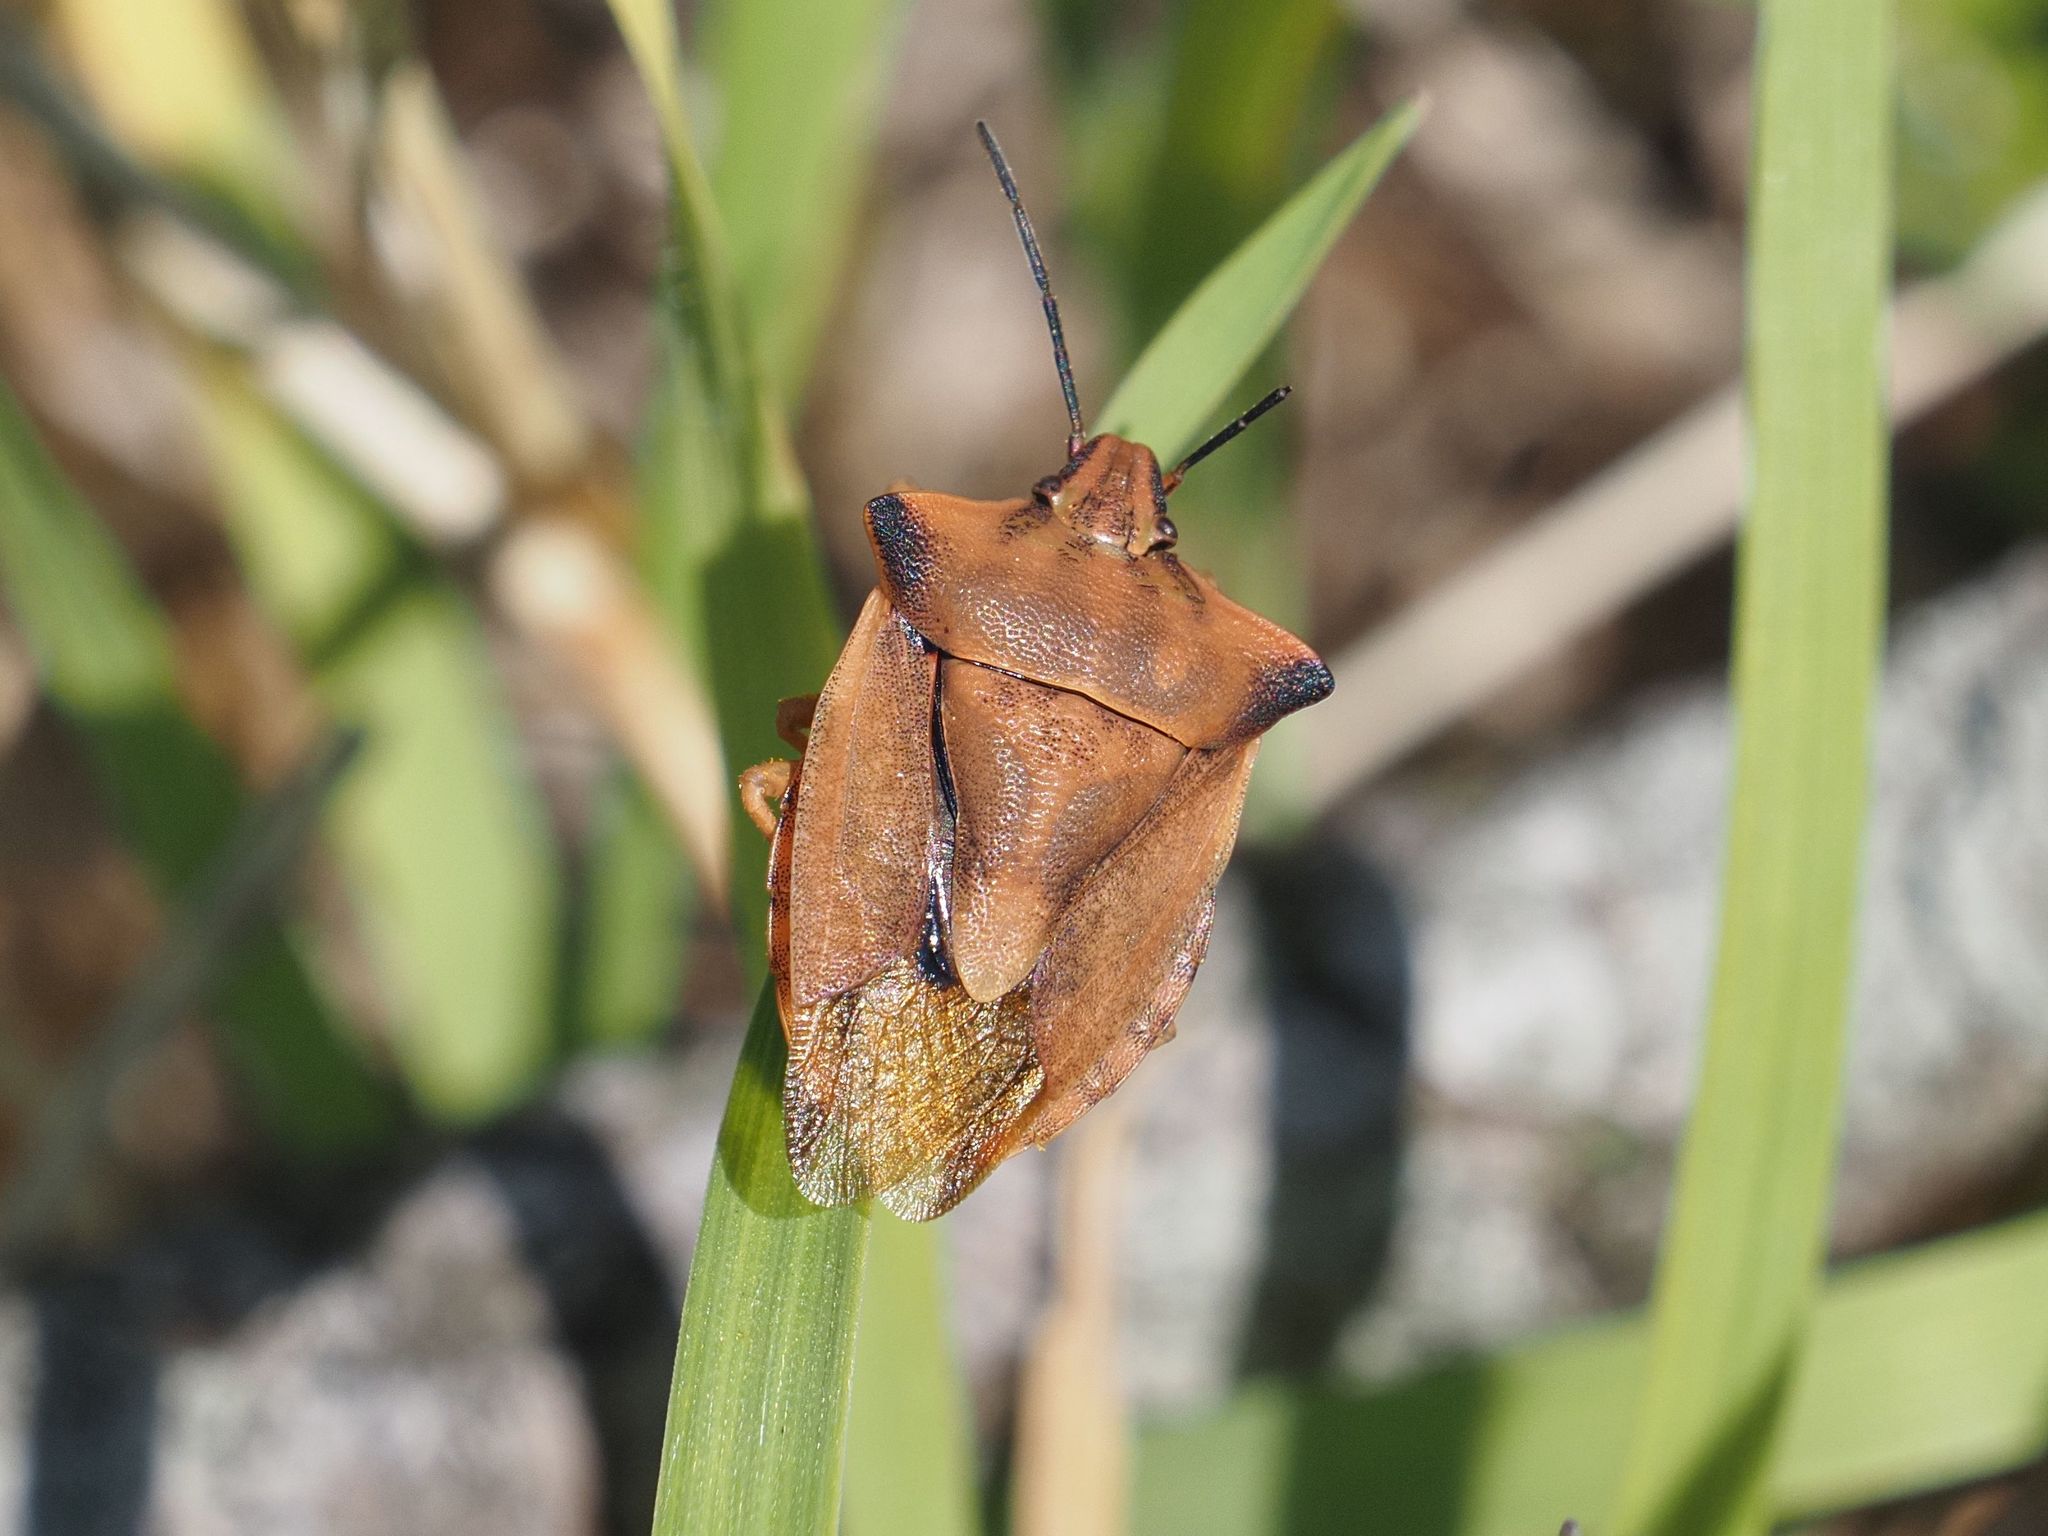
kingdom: Animalia
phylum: Arthropoda
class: Insecta
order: Hemiptera
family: Pentatomidae
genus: Carpocoris
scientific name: Carpocoris fuscispinus
